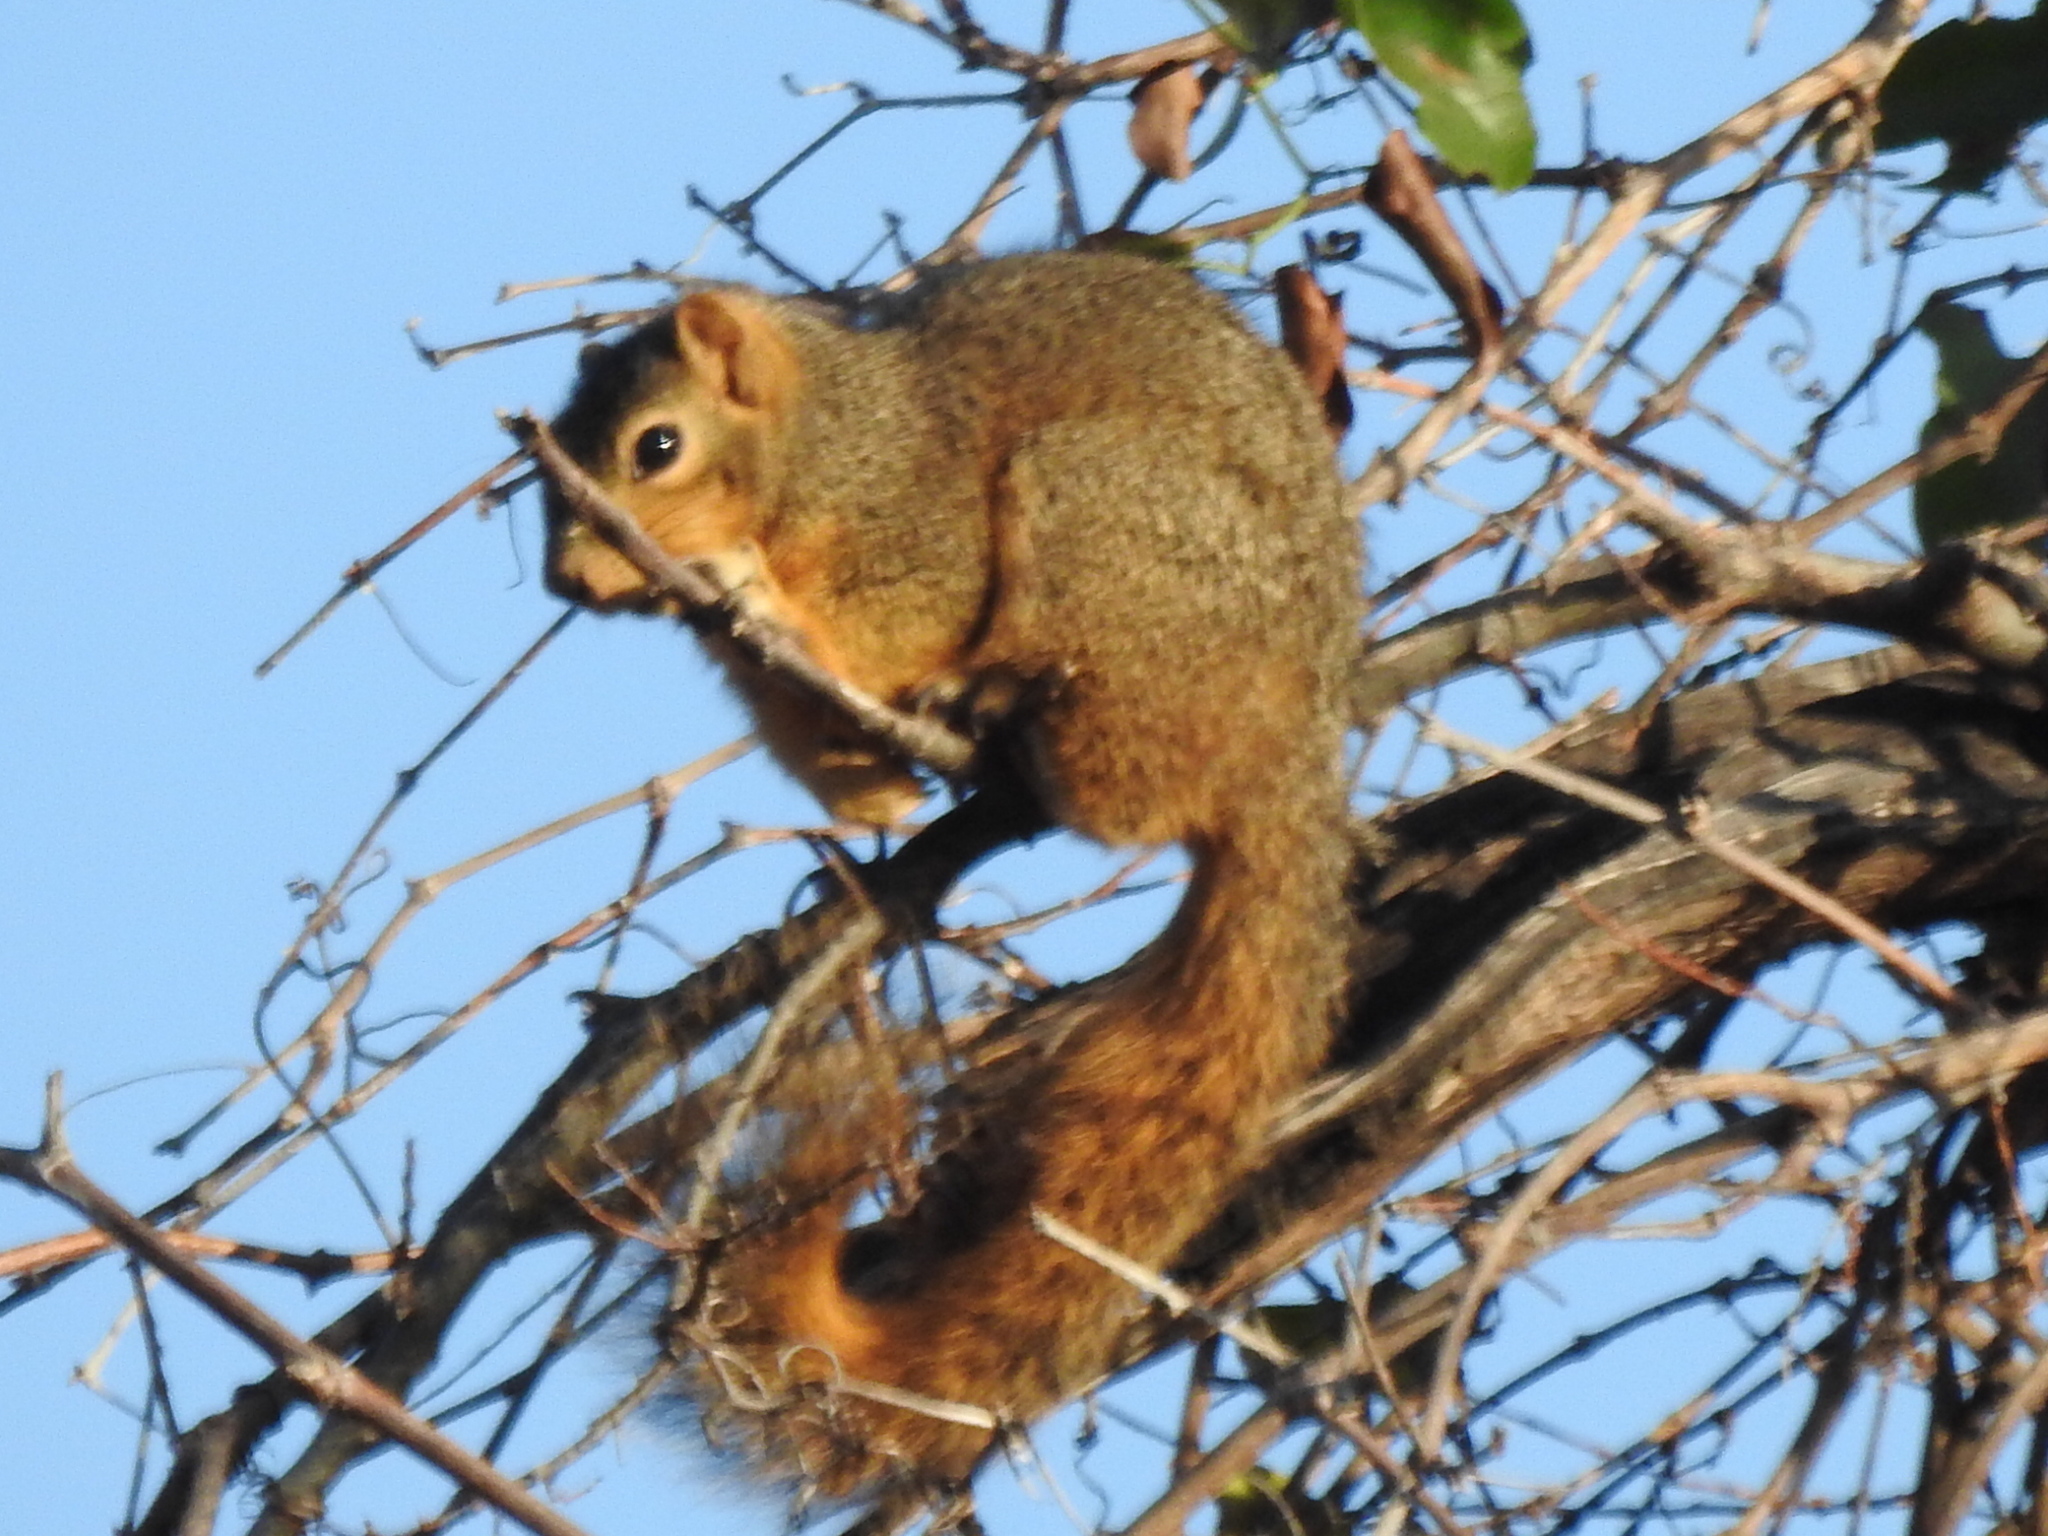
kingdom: Animalia
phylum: Chordata
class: Mammalia
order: Rodentia
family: Sciuridae
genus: Sciurus
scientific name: Sciurus niger
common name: Fox squirrel
